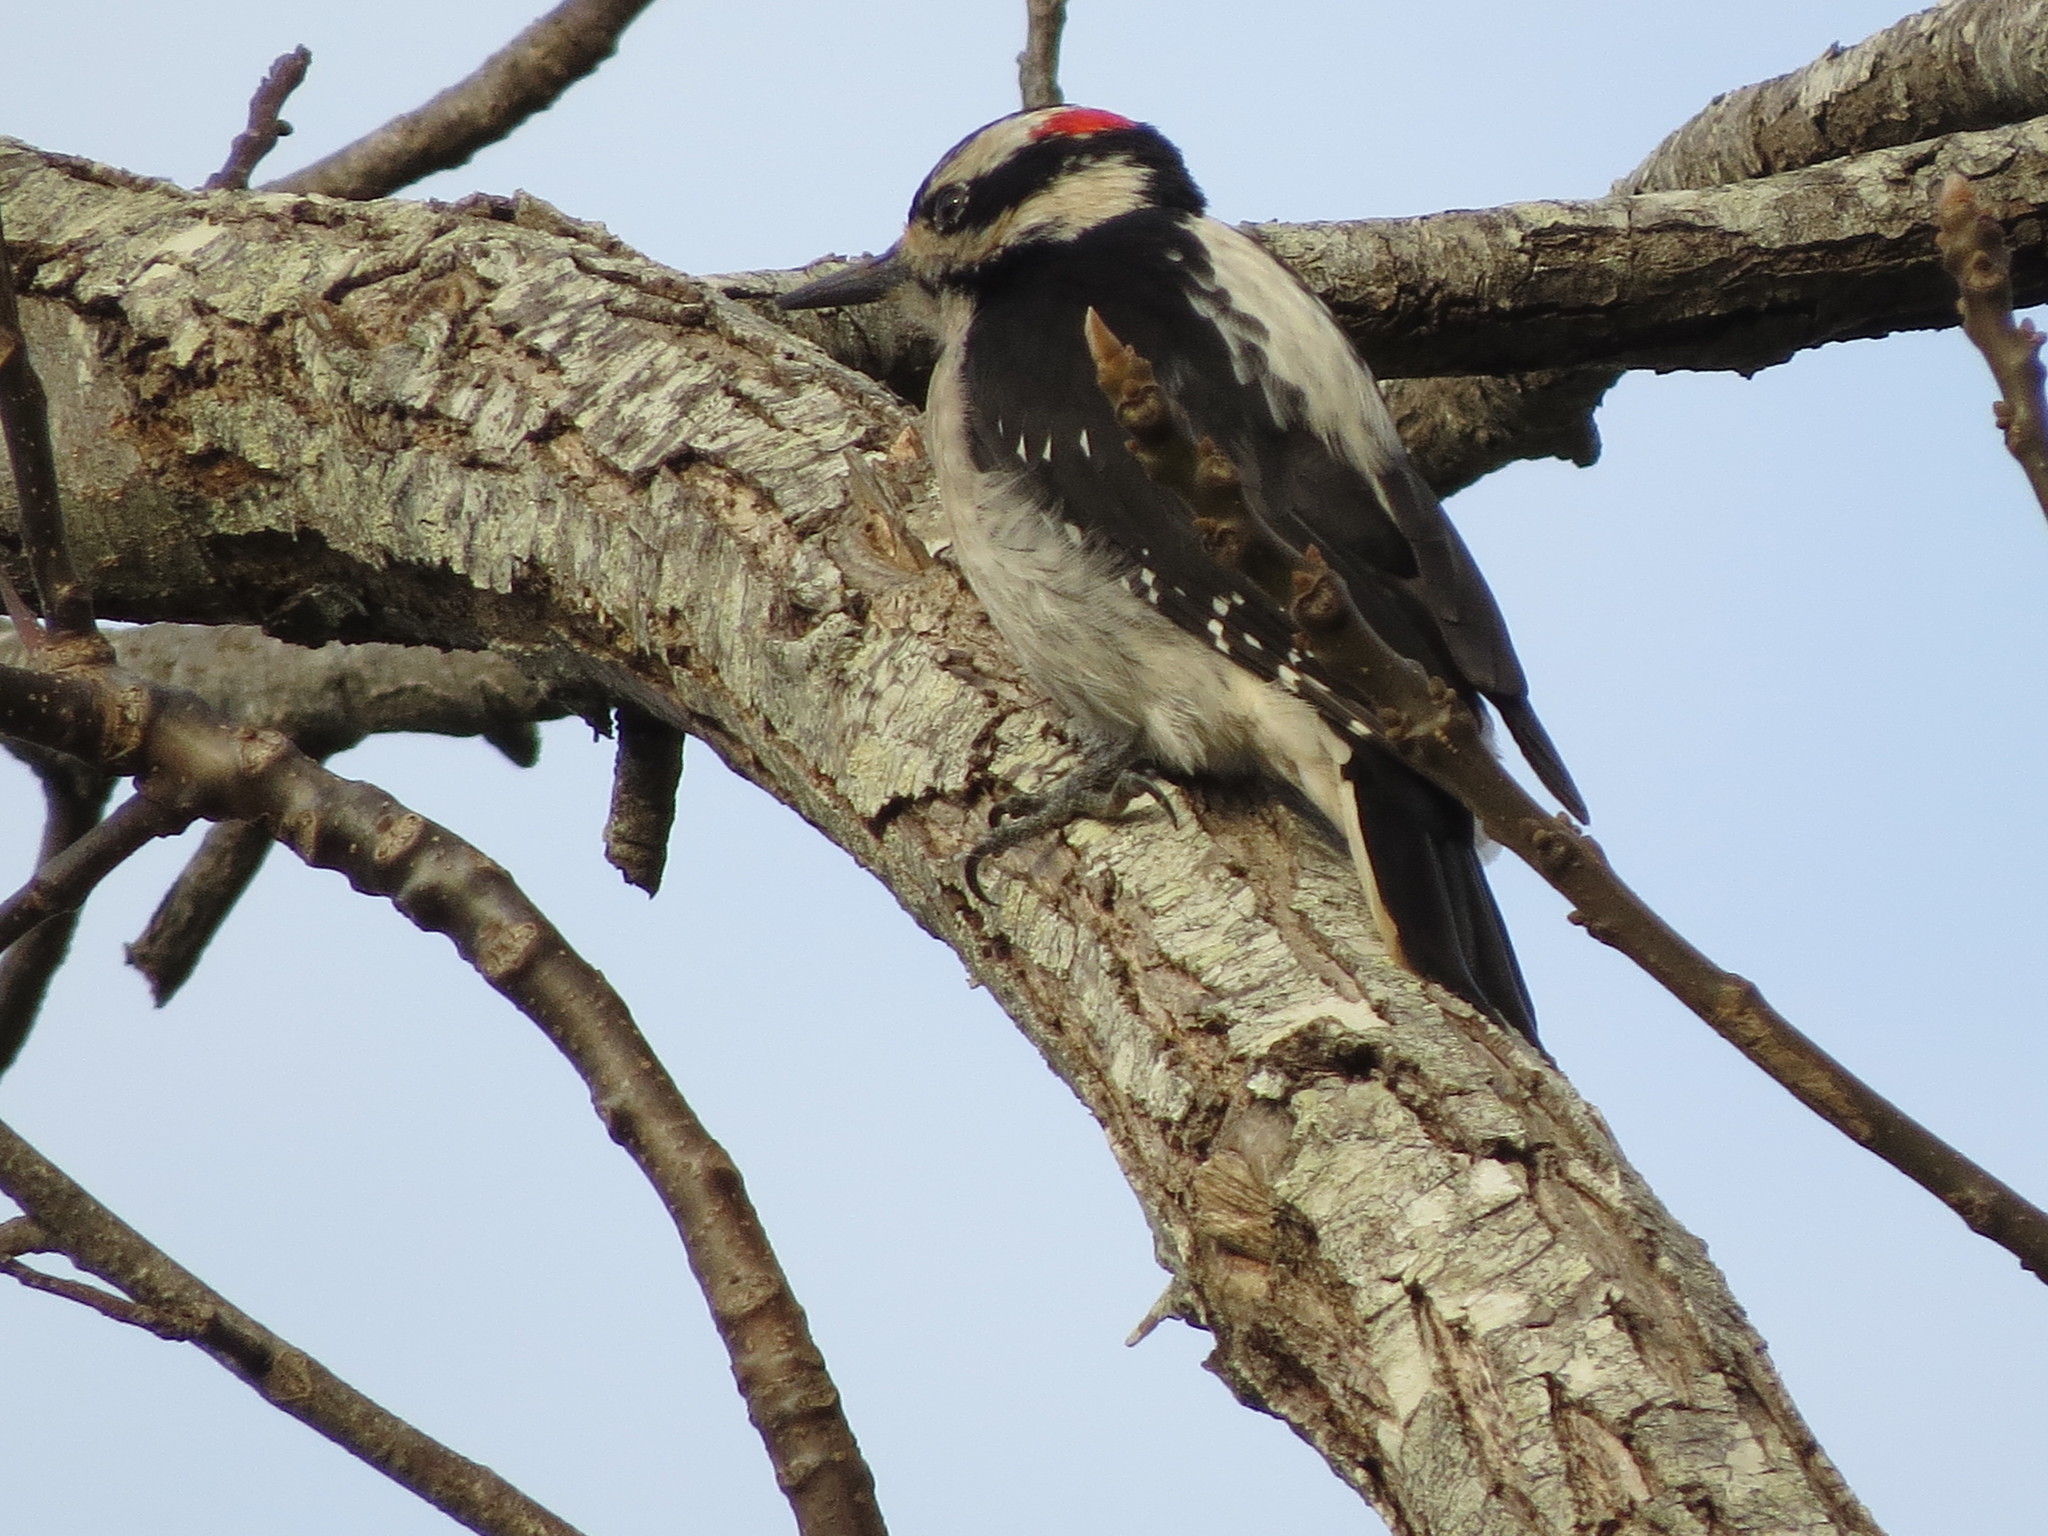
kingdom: Animalia
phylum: Chordata
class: Aves
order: Piciformes
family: Picidae
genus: Leuconotopicus
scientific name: Leuconotopicus villosus
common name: Hairy woodpecker
